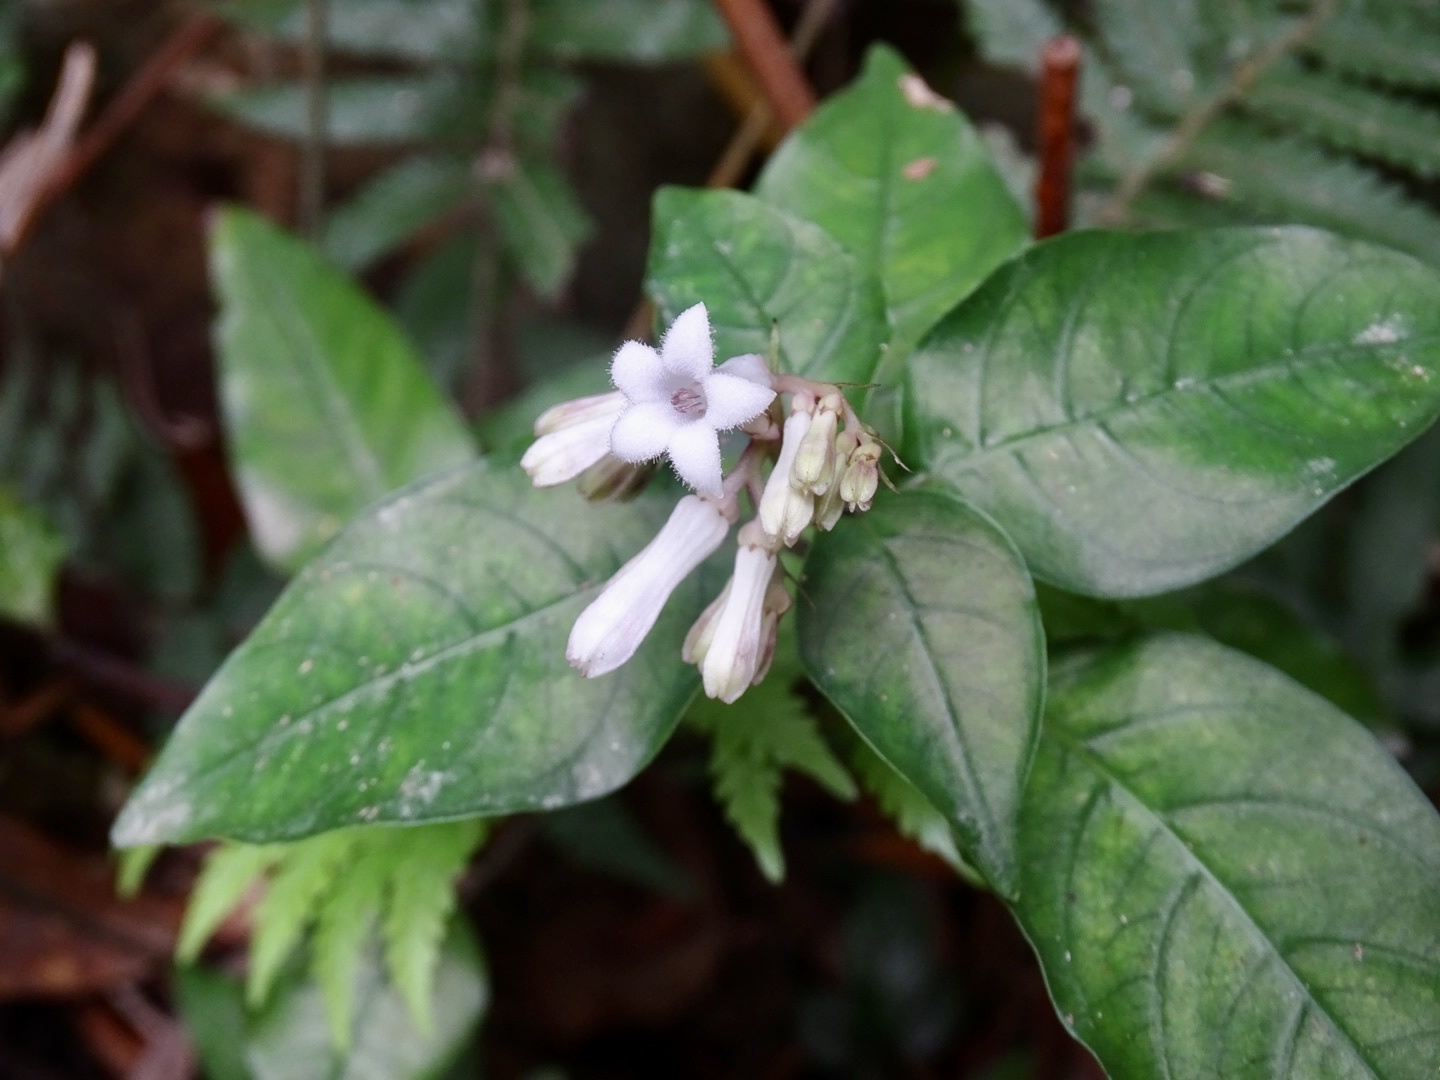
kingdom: Plantae
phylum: Tracheophyta
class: Magnoliopsida
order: Gentianales
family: Rubiaceae
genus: Ophiorrhiza
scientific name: Ophiorrhiza japonica
